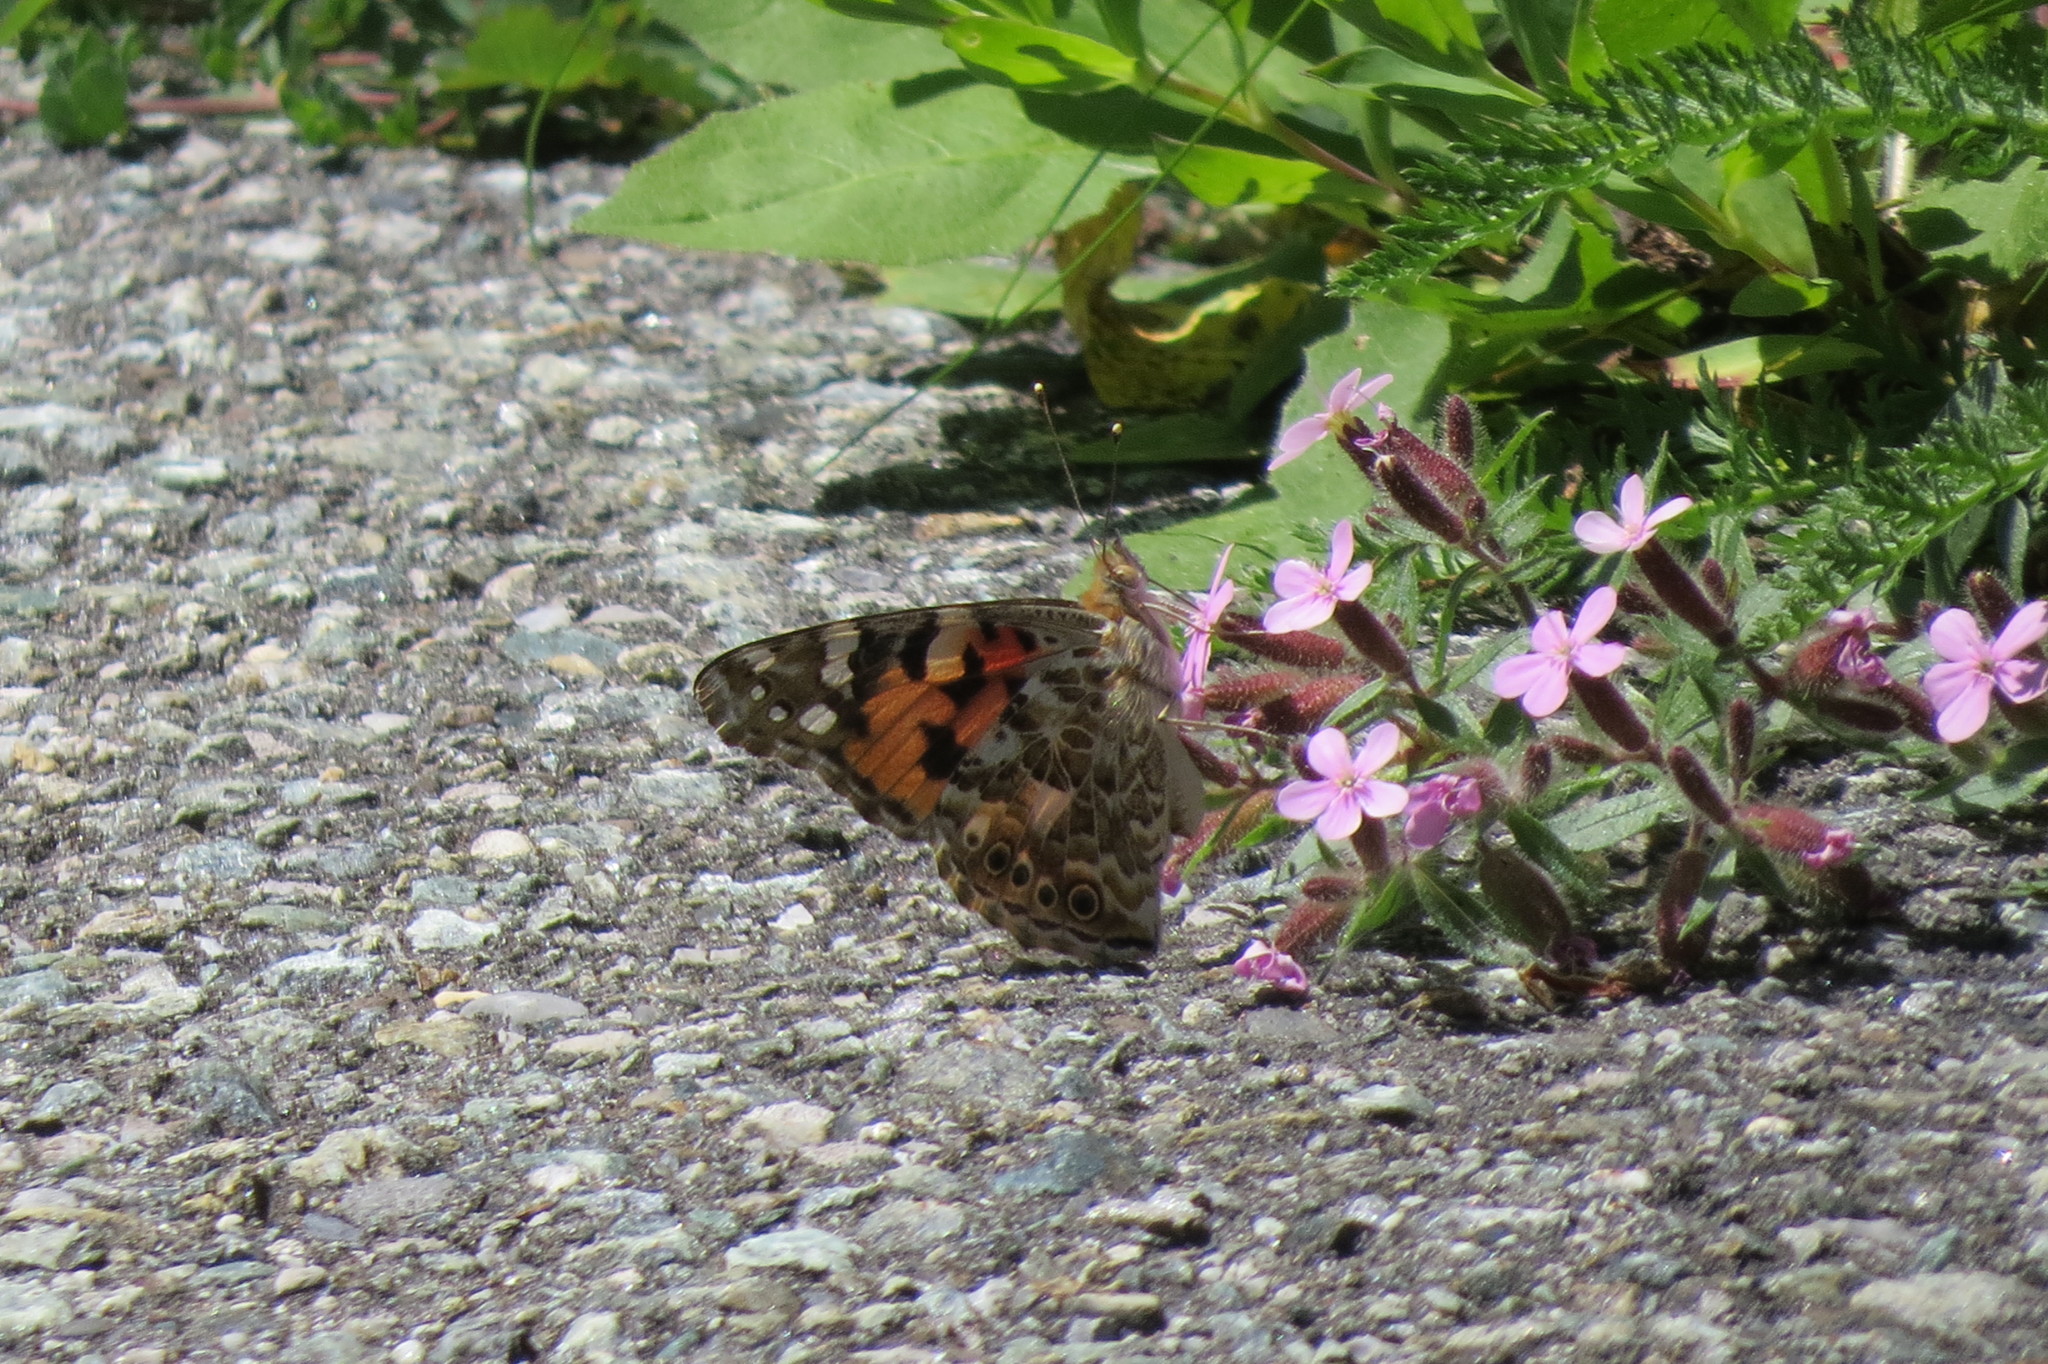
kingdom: Animalia
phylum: Arthropoda
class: Insecta
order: Lepidoptera
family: Nymphalidae
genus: Vanessa
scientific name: Vanessa cardui
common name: Painted lady
